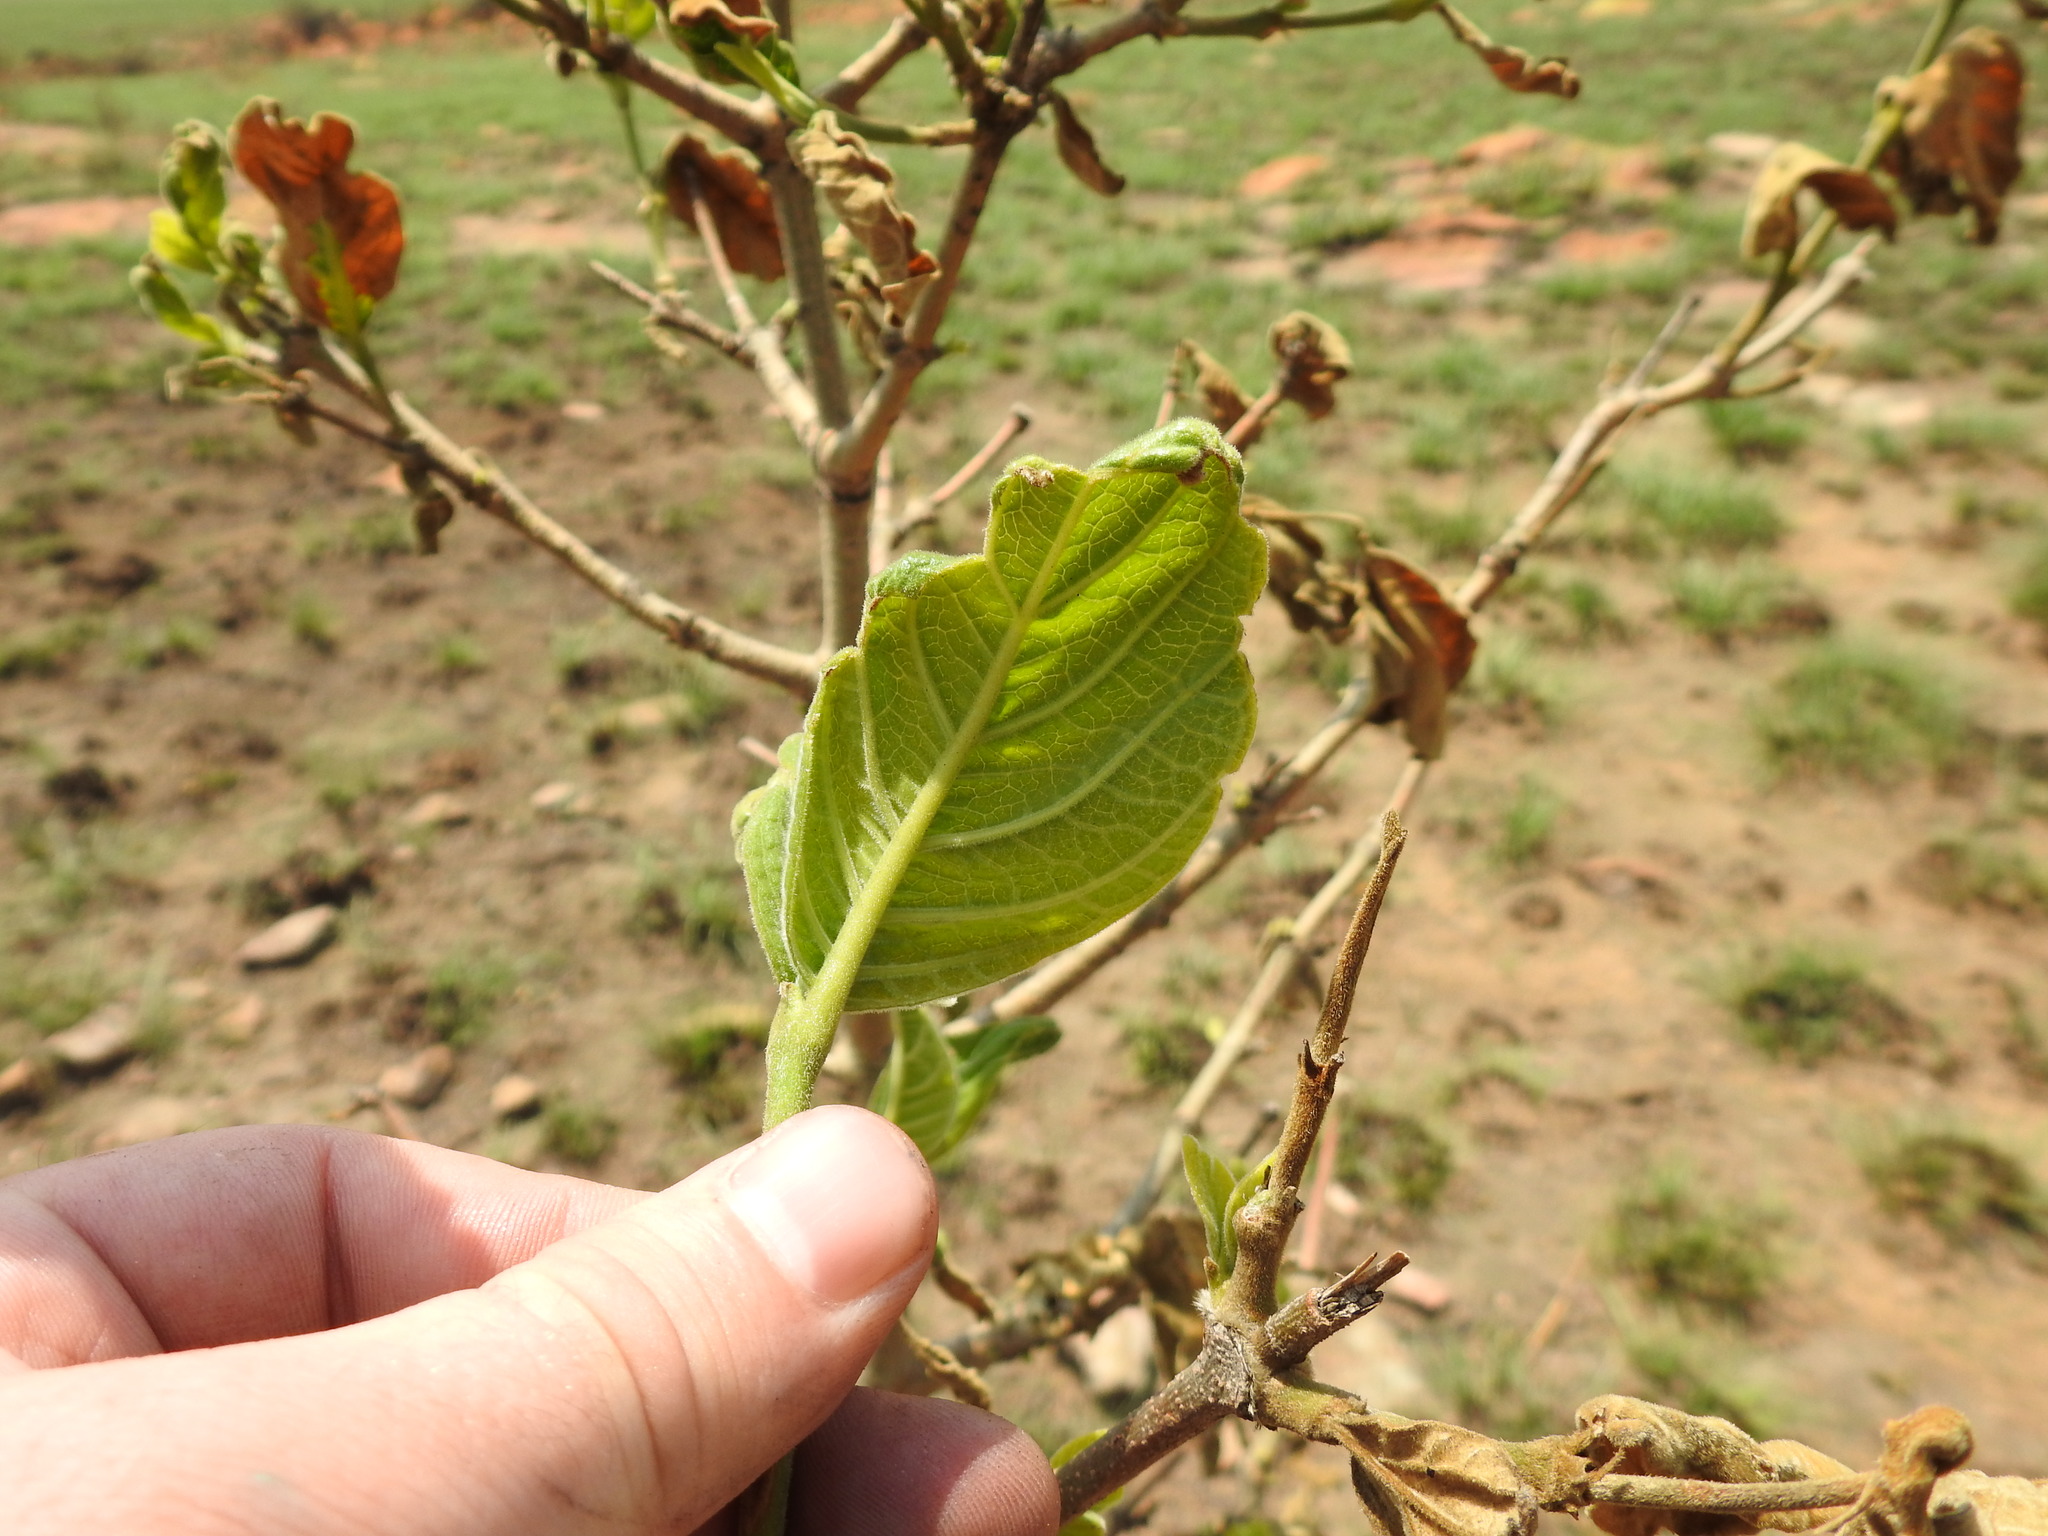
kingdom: Plantae
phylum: Tracheophyta
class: Magnoliopsida
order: Gentianales
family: Rubiaceae
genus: Vangueria
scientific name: Vangueria infausta
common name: Medlar
